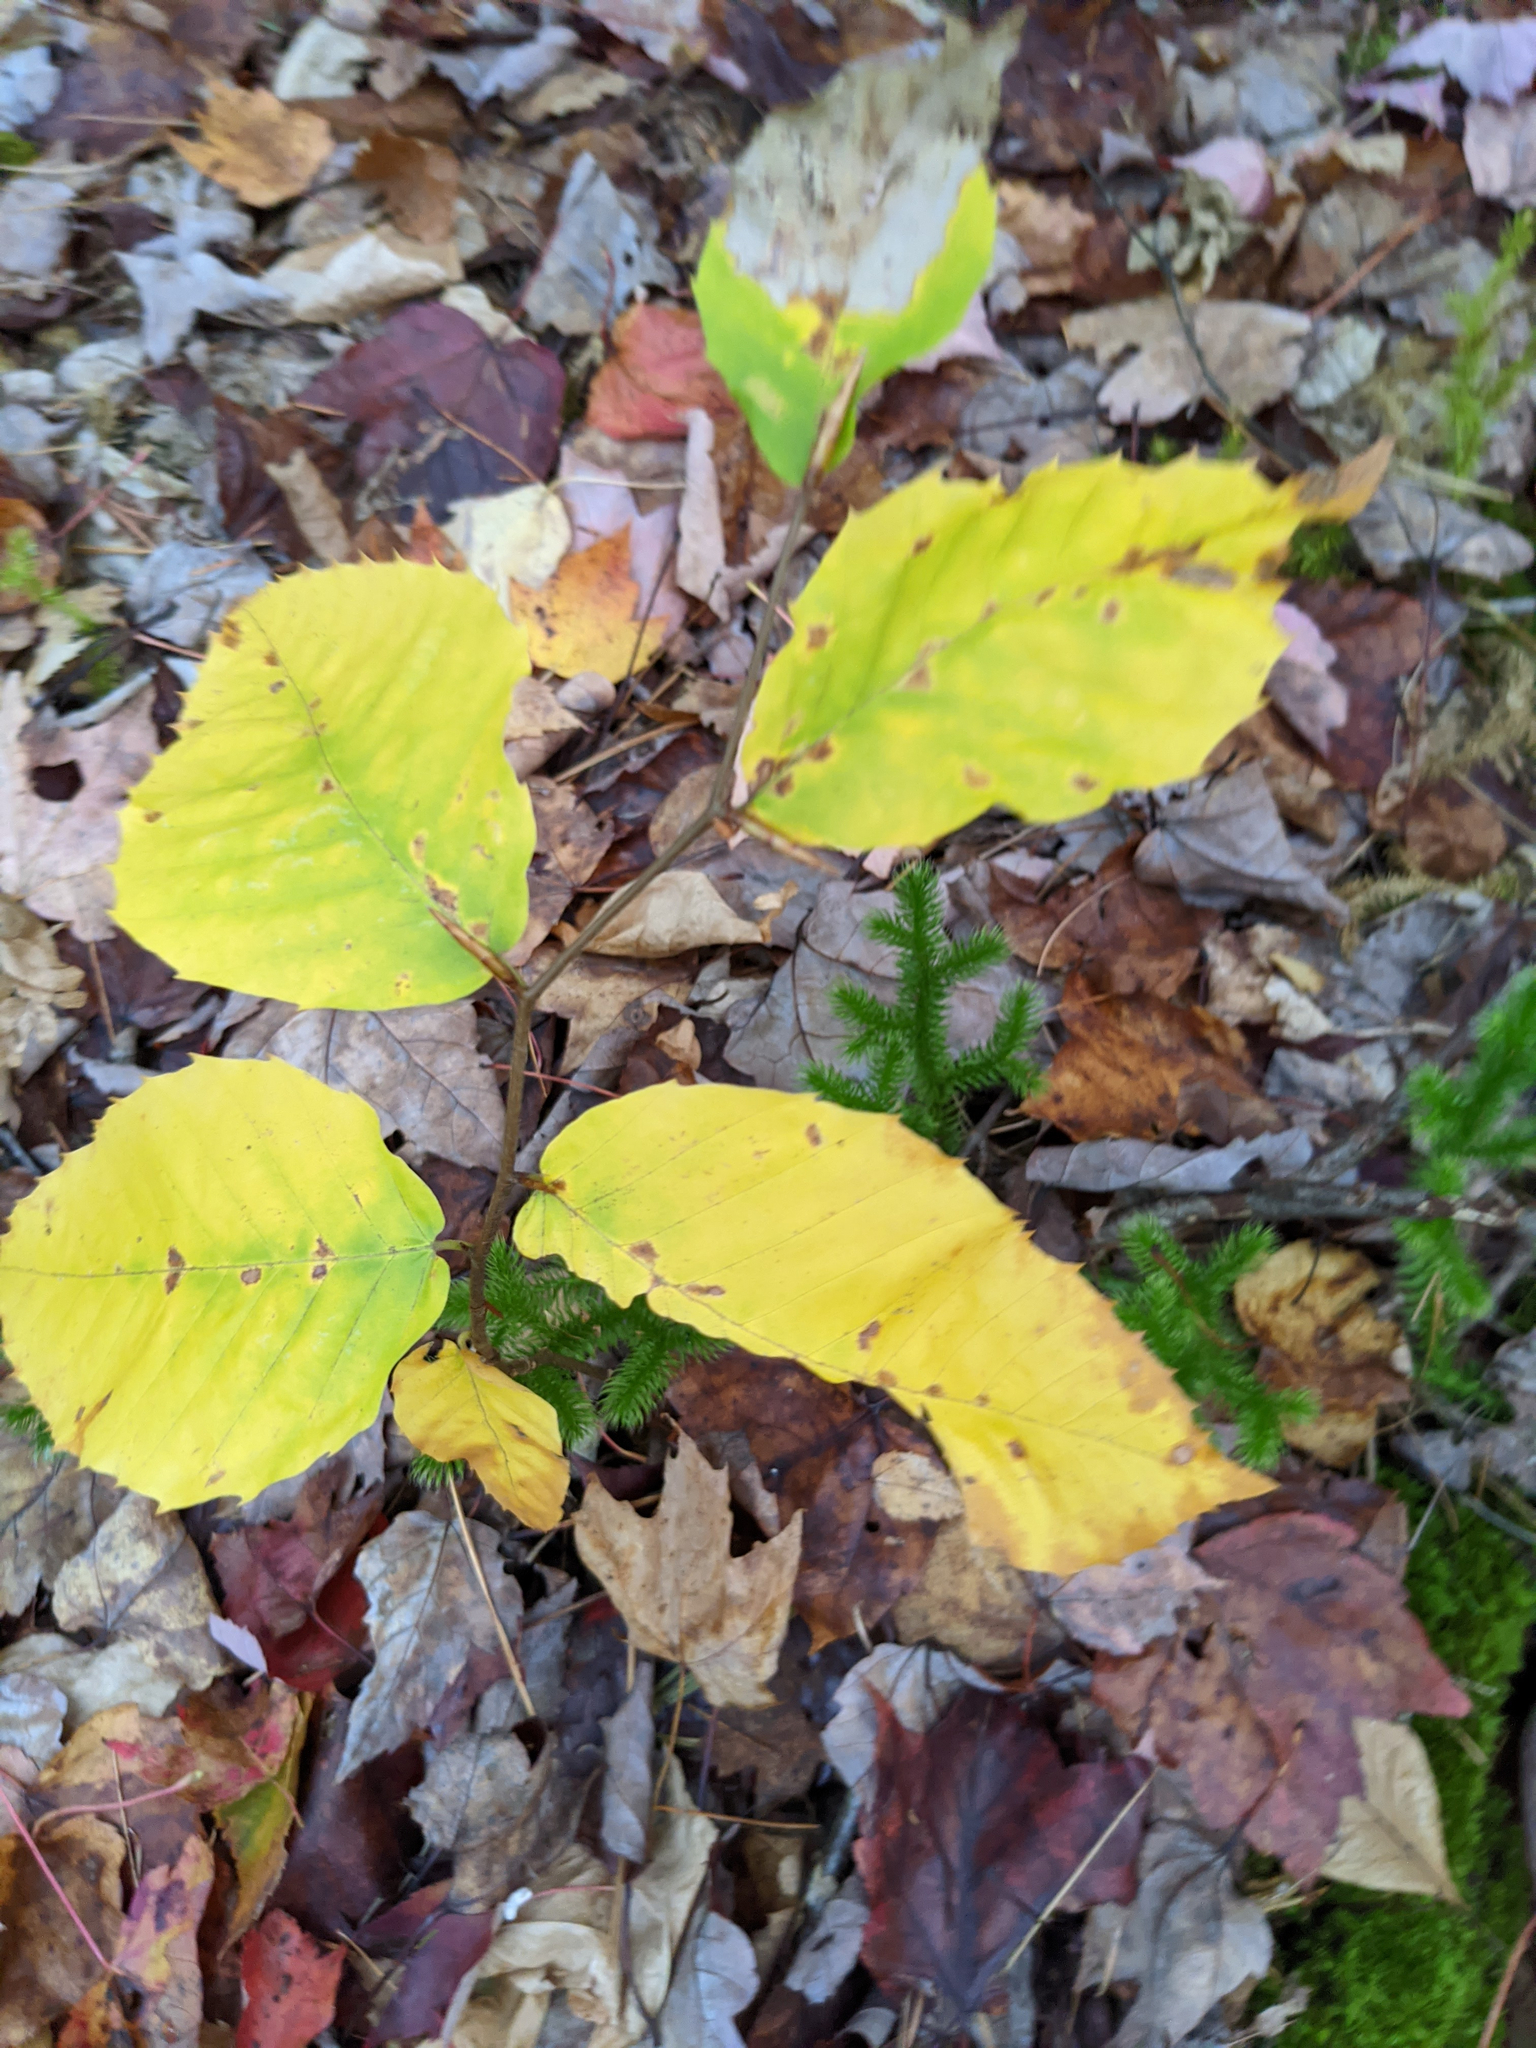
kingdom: Plantae
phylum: Tracheophyta
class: Magnoliopsida
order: Fagales
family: Fagaceae
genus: Fagus
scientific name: Fagus grandifolia
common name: American beech
